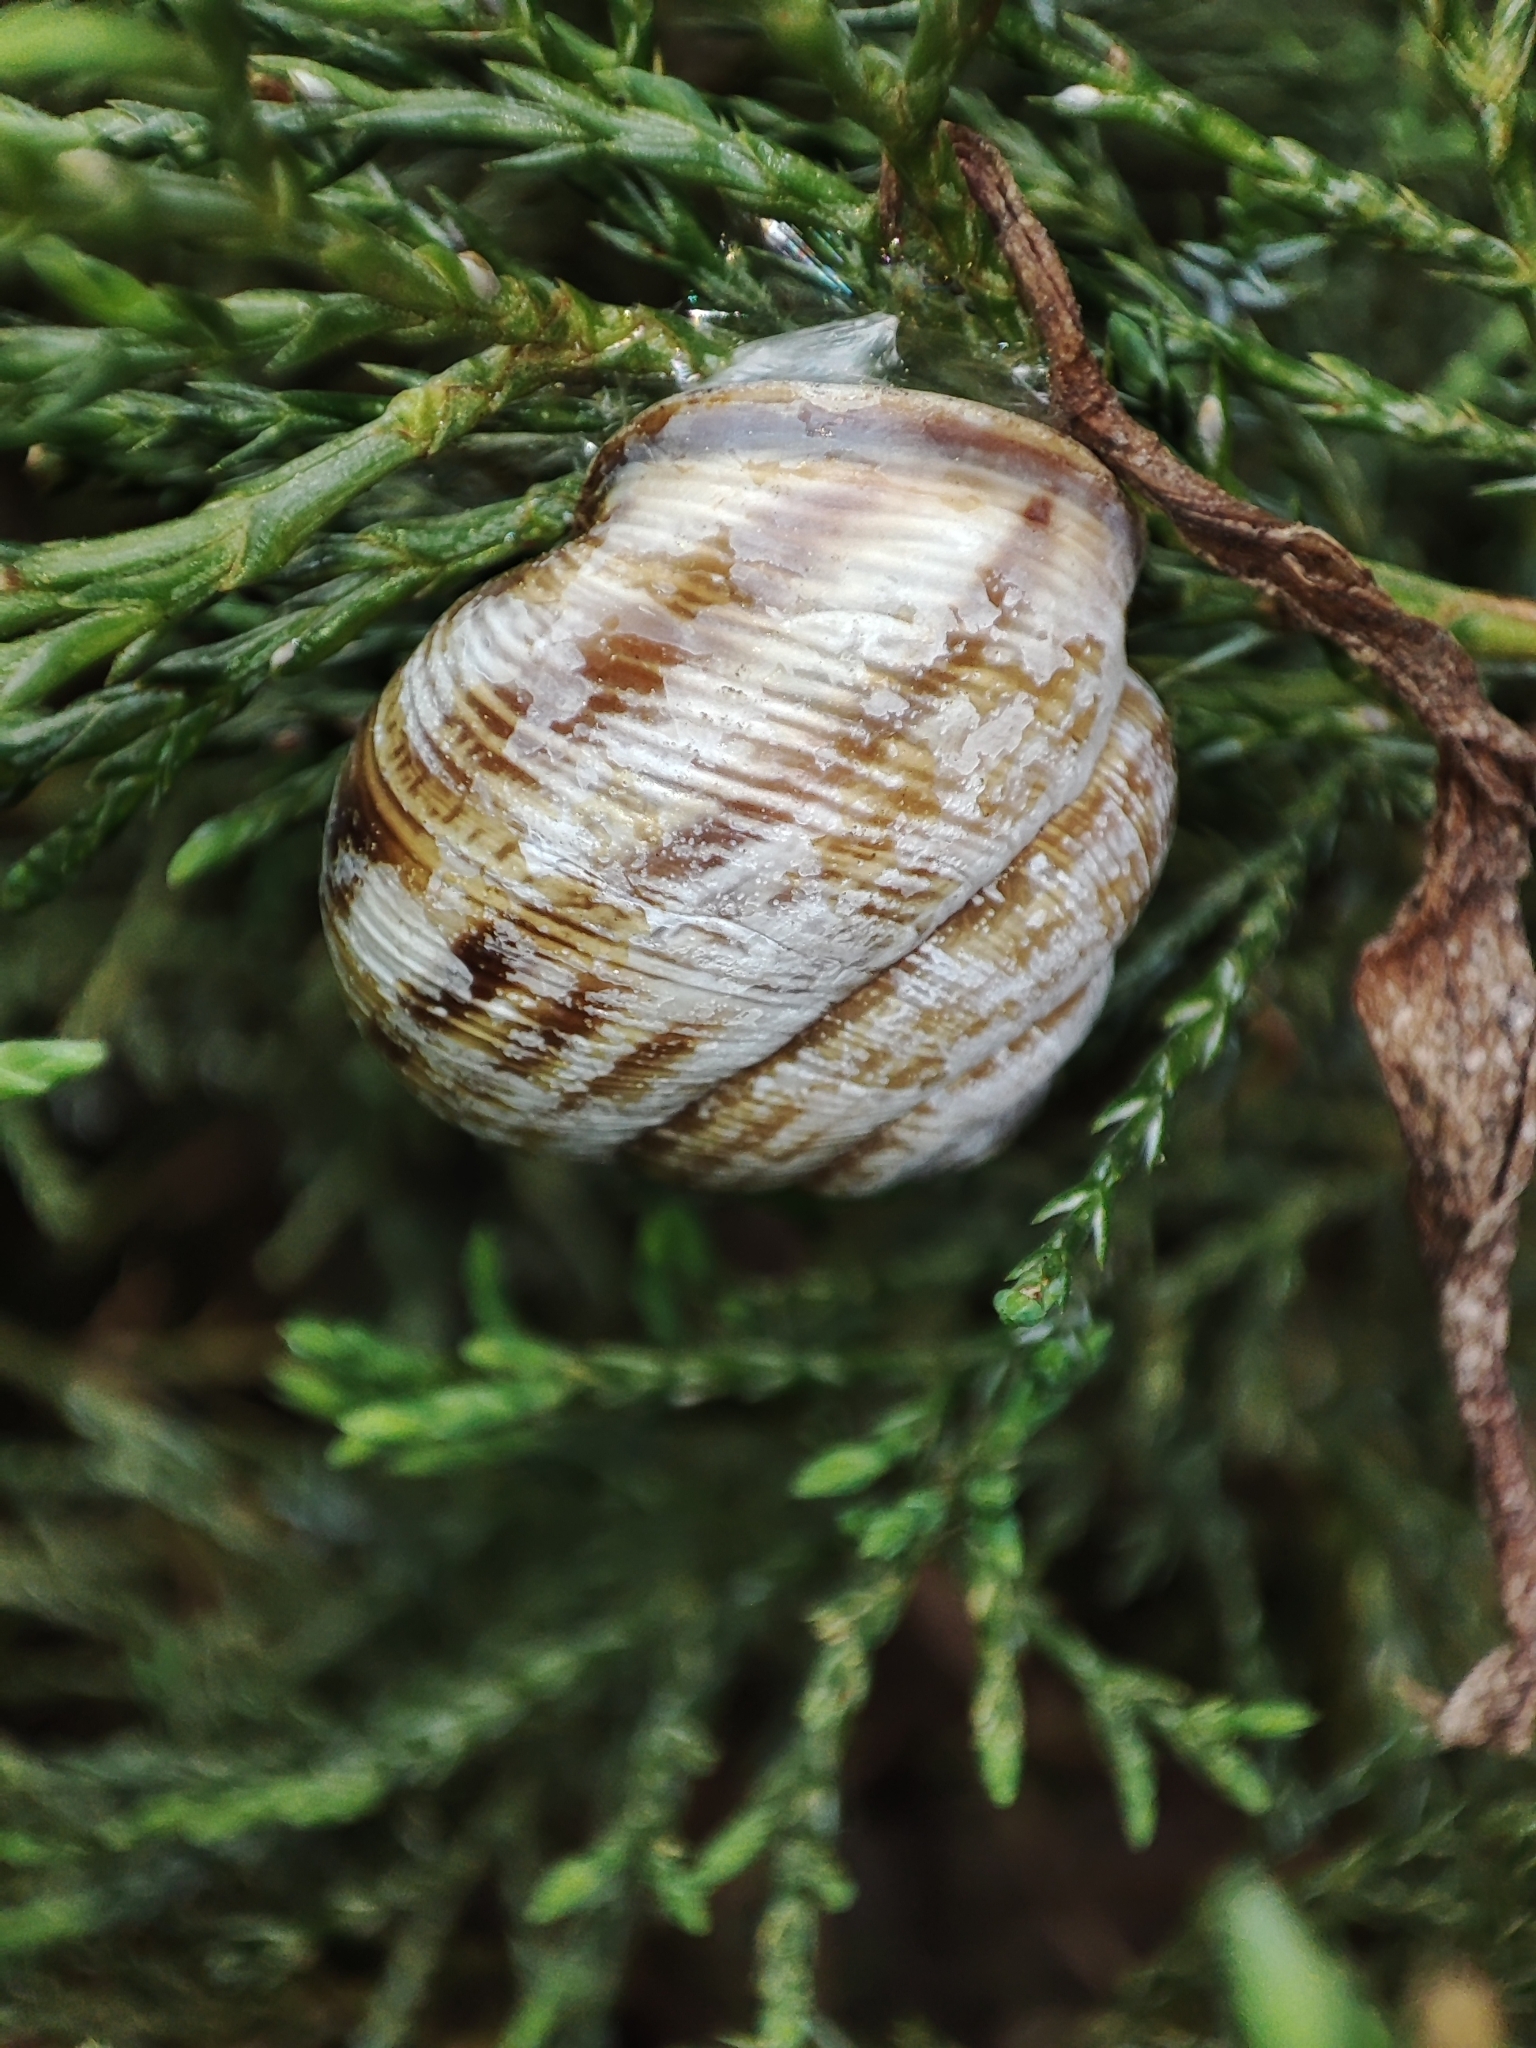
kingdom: Animalia
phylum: Mollusca
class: Gastropoda
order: Stylommatophora
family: Helicidae
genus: Caucasotachea
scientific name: Caucasotachea vindobonensis
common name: European helicid land snail
